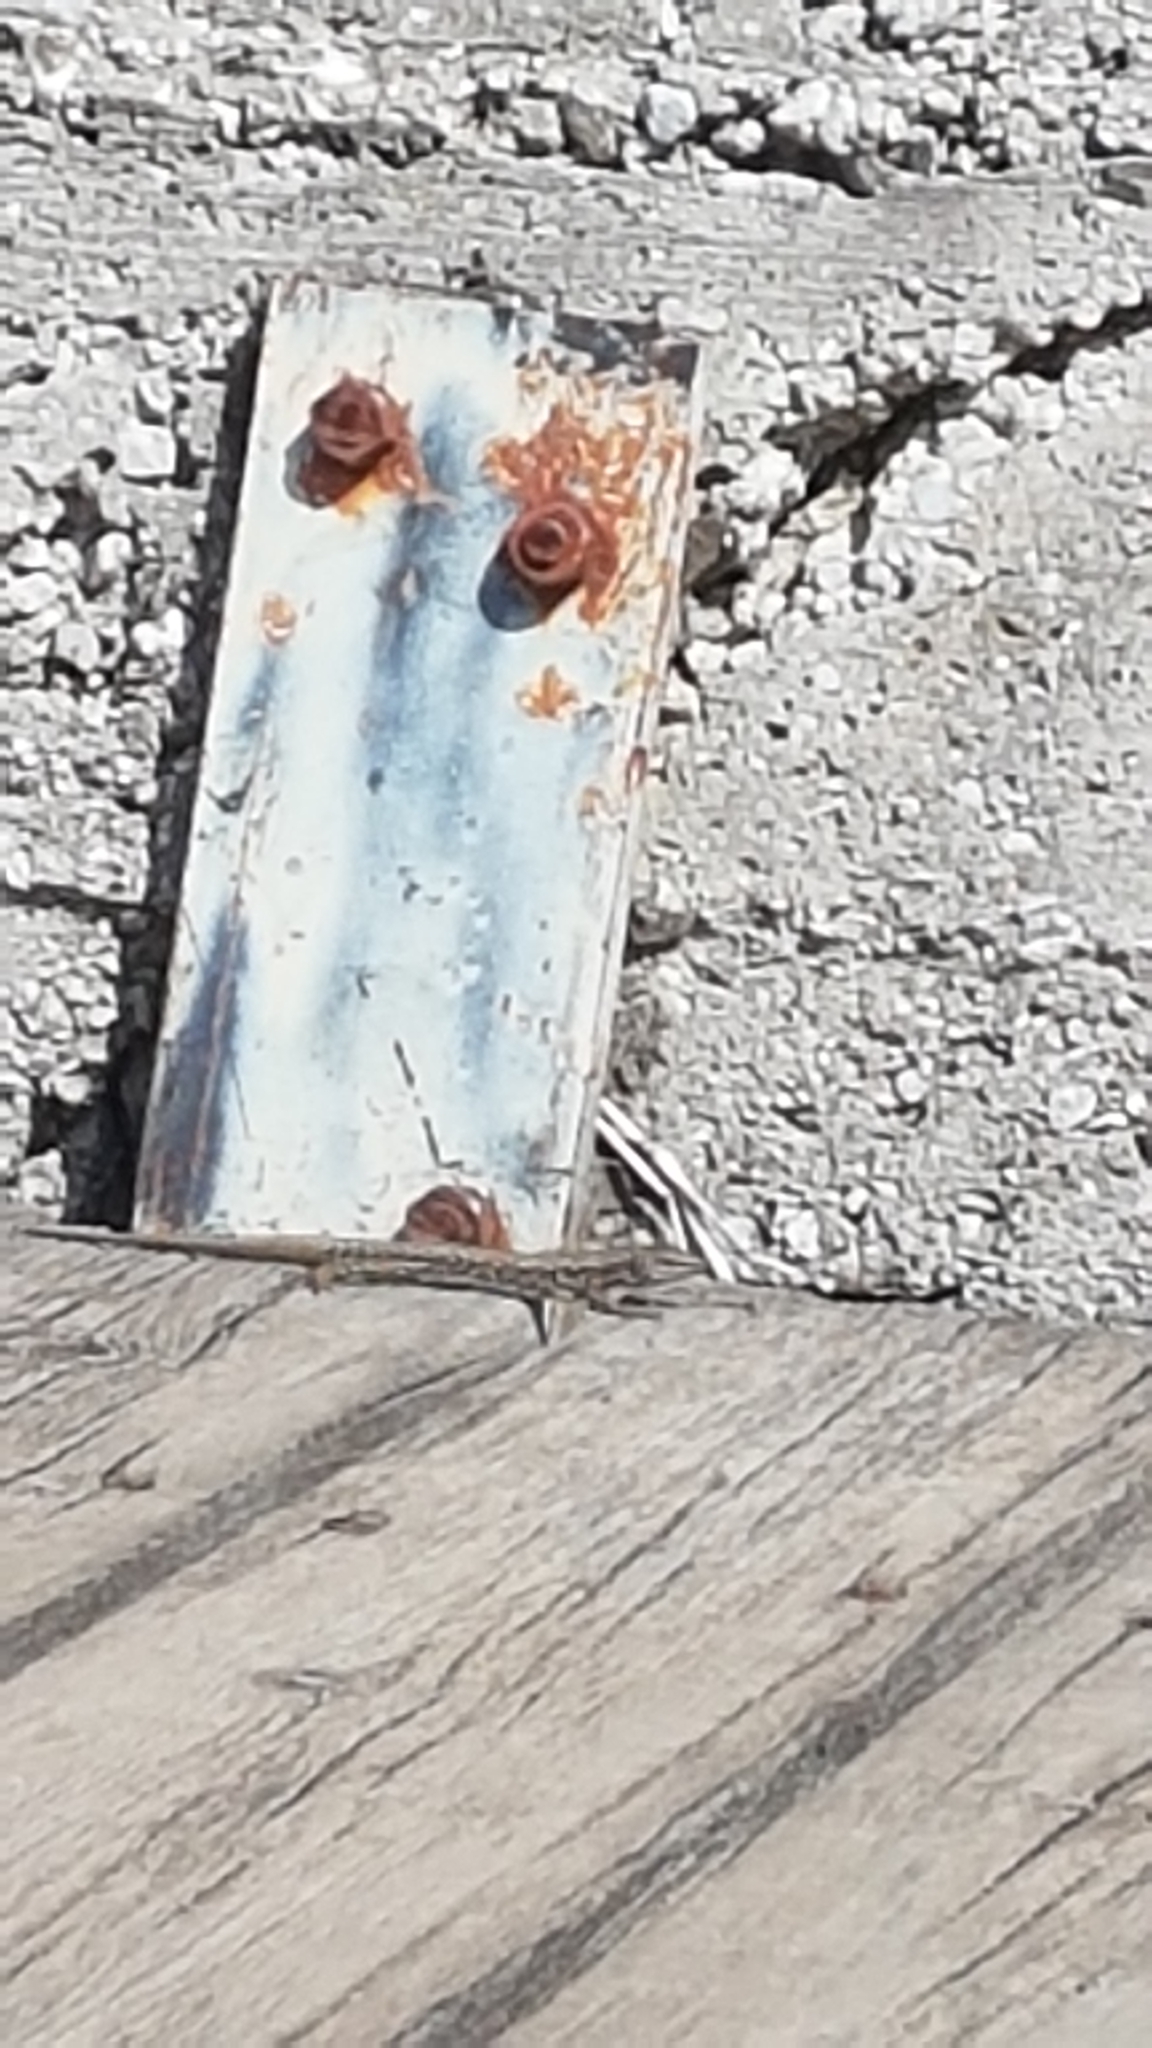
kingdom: Animalia
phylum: Chordata
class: Squamata
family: Lacertidae
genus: Podarcis
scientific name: Podarcis muralis
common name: Common wall lizard
